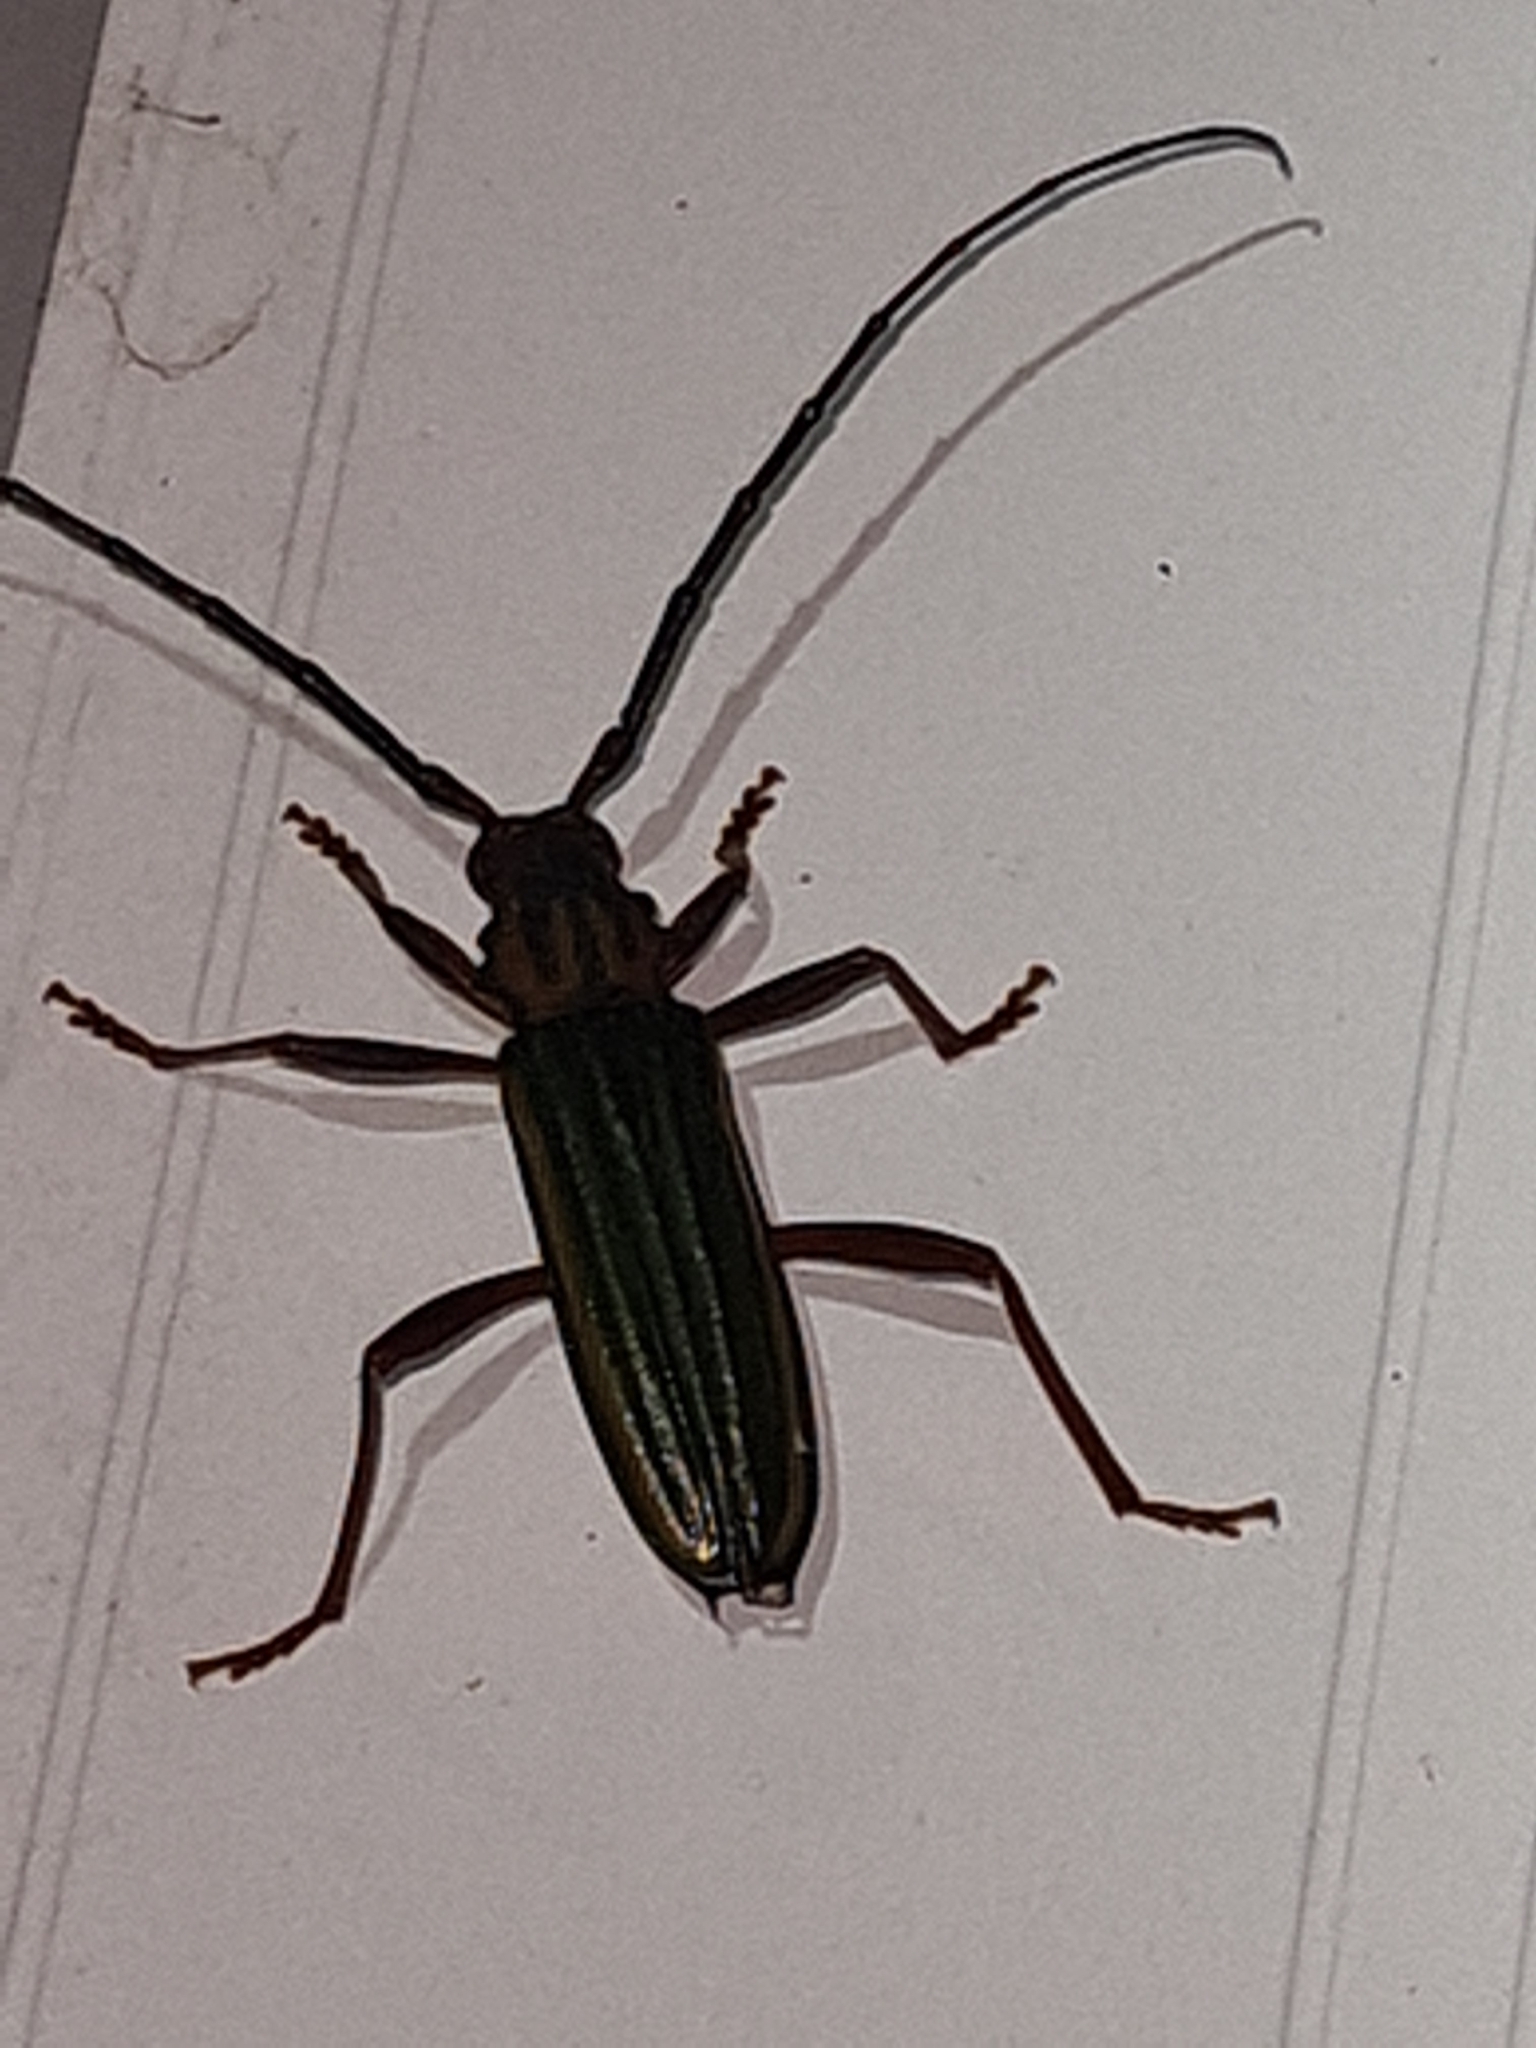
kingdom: Animalia
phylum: Arthropoda
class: Insecta
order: Coleoptera
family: Cerambycidae
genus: Chlorida
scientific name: Chlorida festiva
